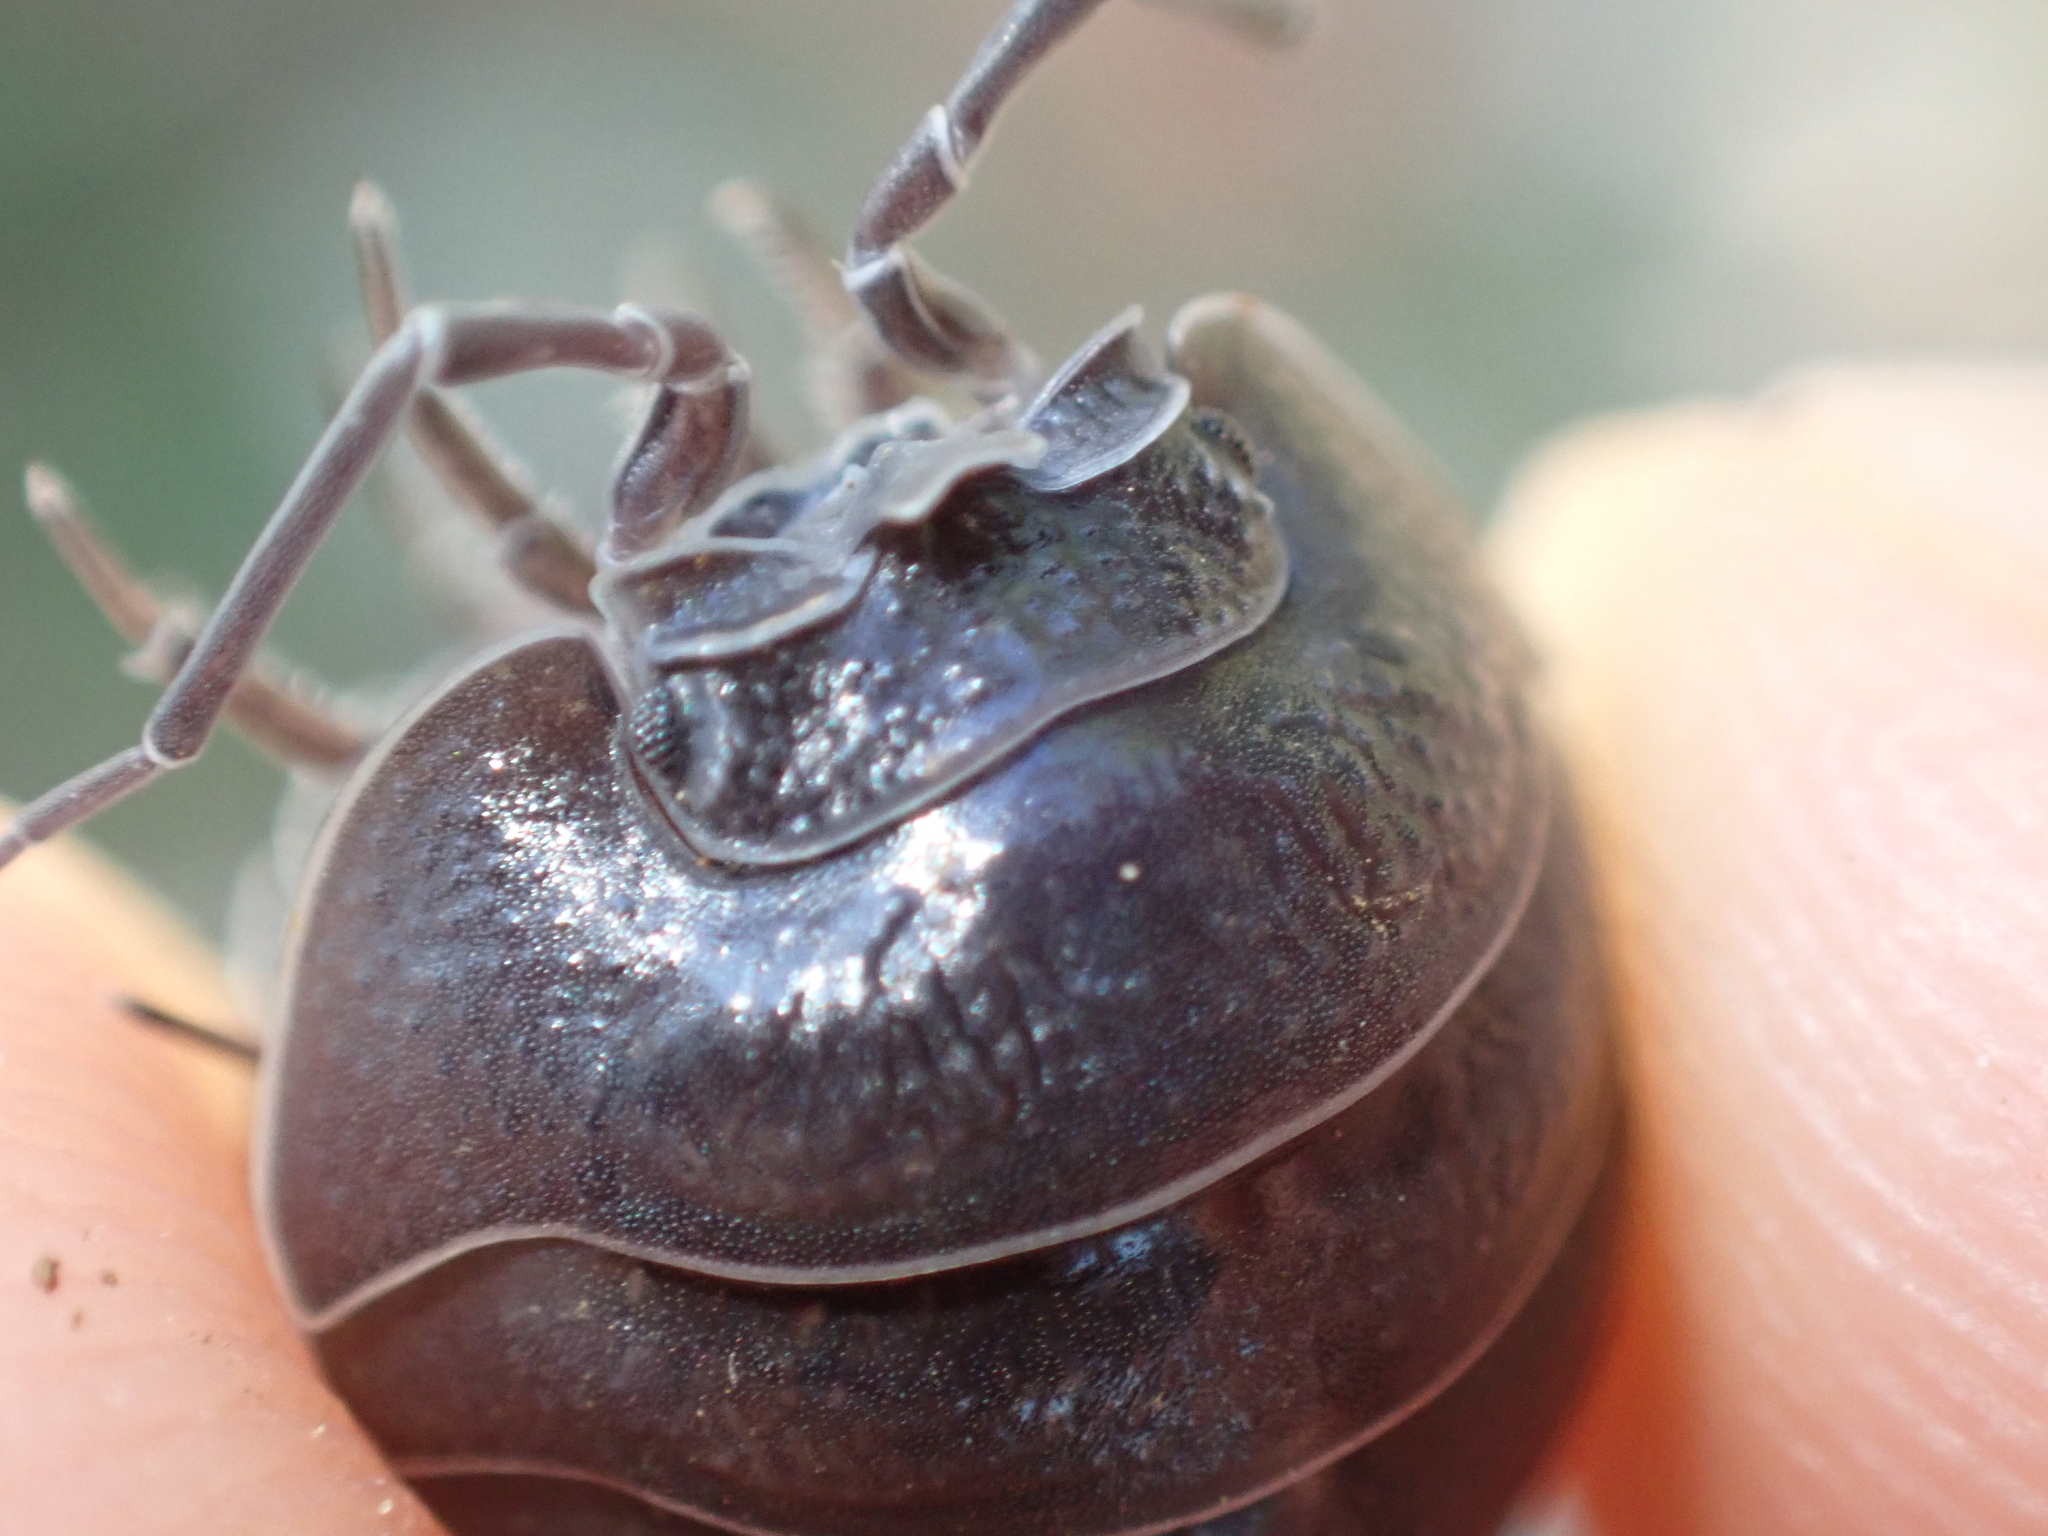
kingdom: Animalia
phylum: Arthropoda
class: Malacostraca
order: Isopoda
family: Armadillidiidae
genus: Armadillidium
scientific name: Armadillidium pallasii
